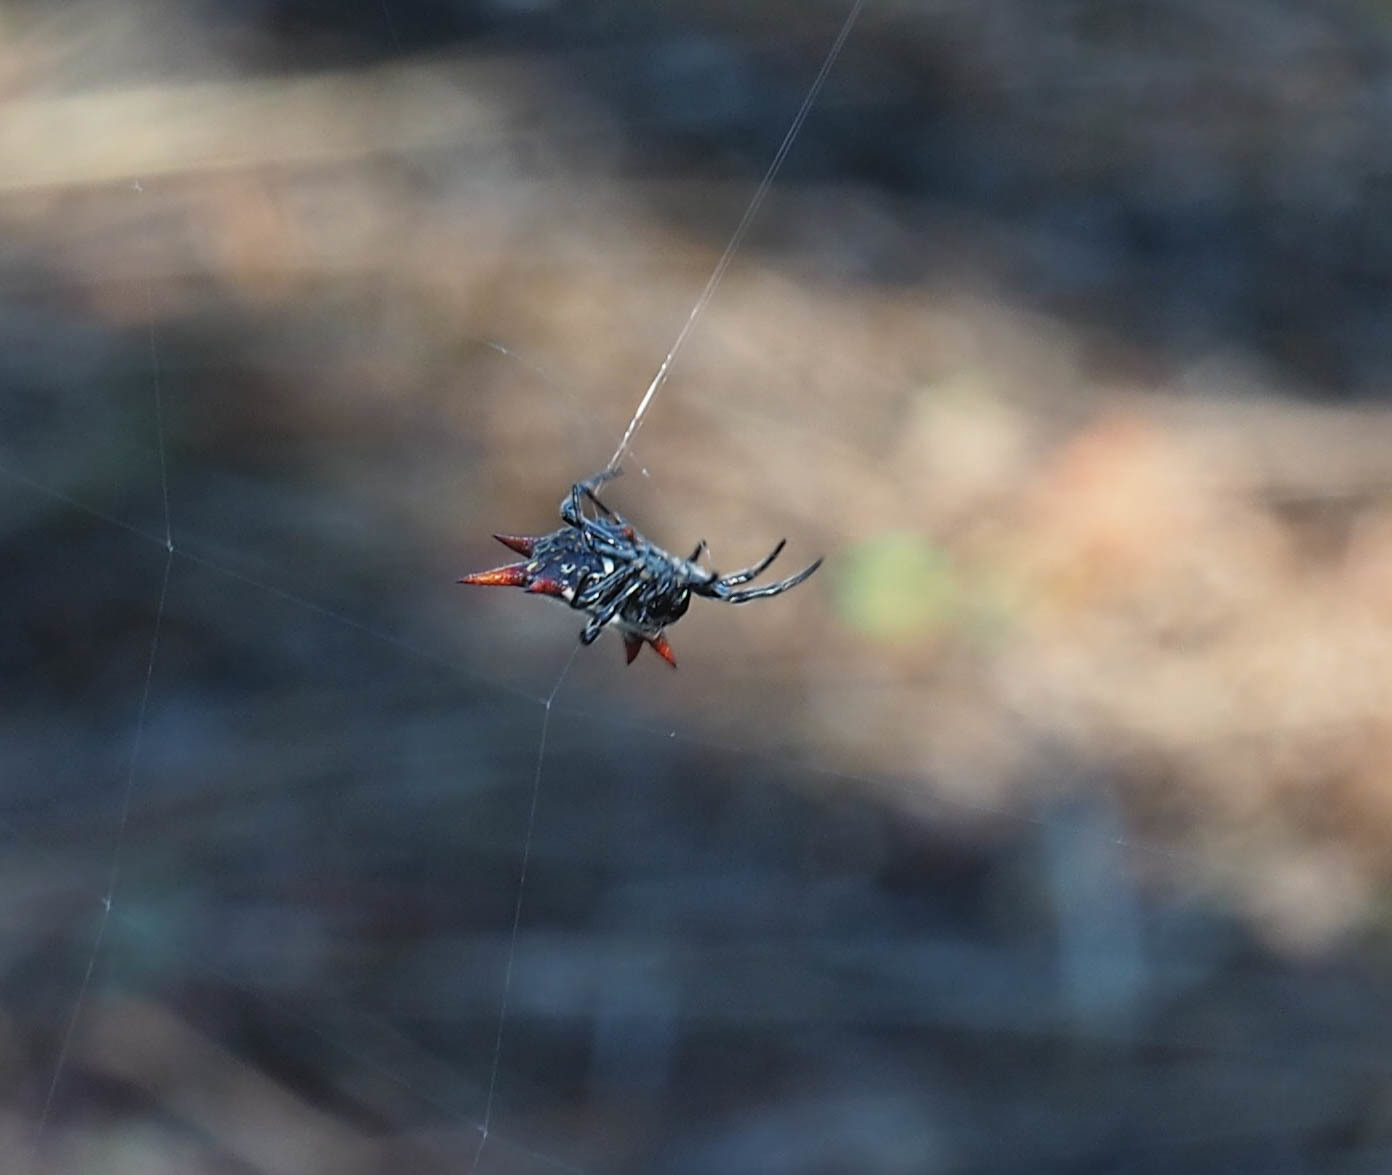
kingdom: Animalia
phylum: Arthropoda
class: Arachnida
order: Araneae
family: Araneidae
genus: Gasteracantha
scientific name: Gasteracantha cancriformis
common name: Orb weavers
